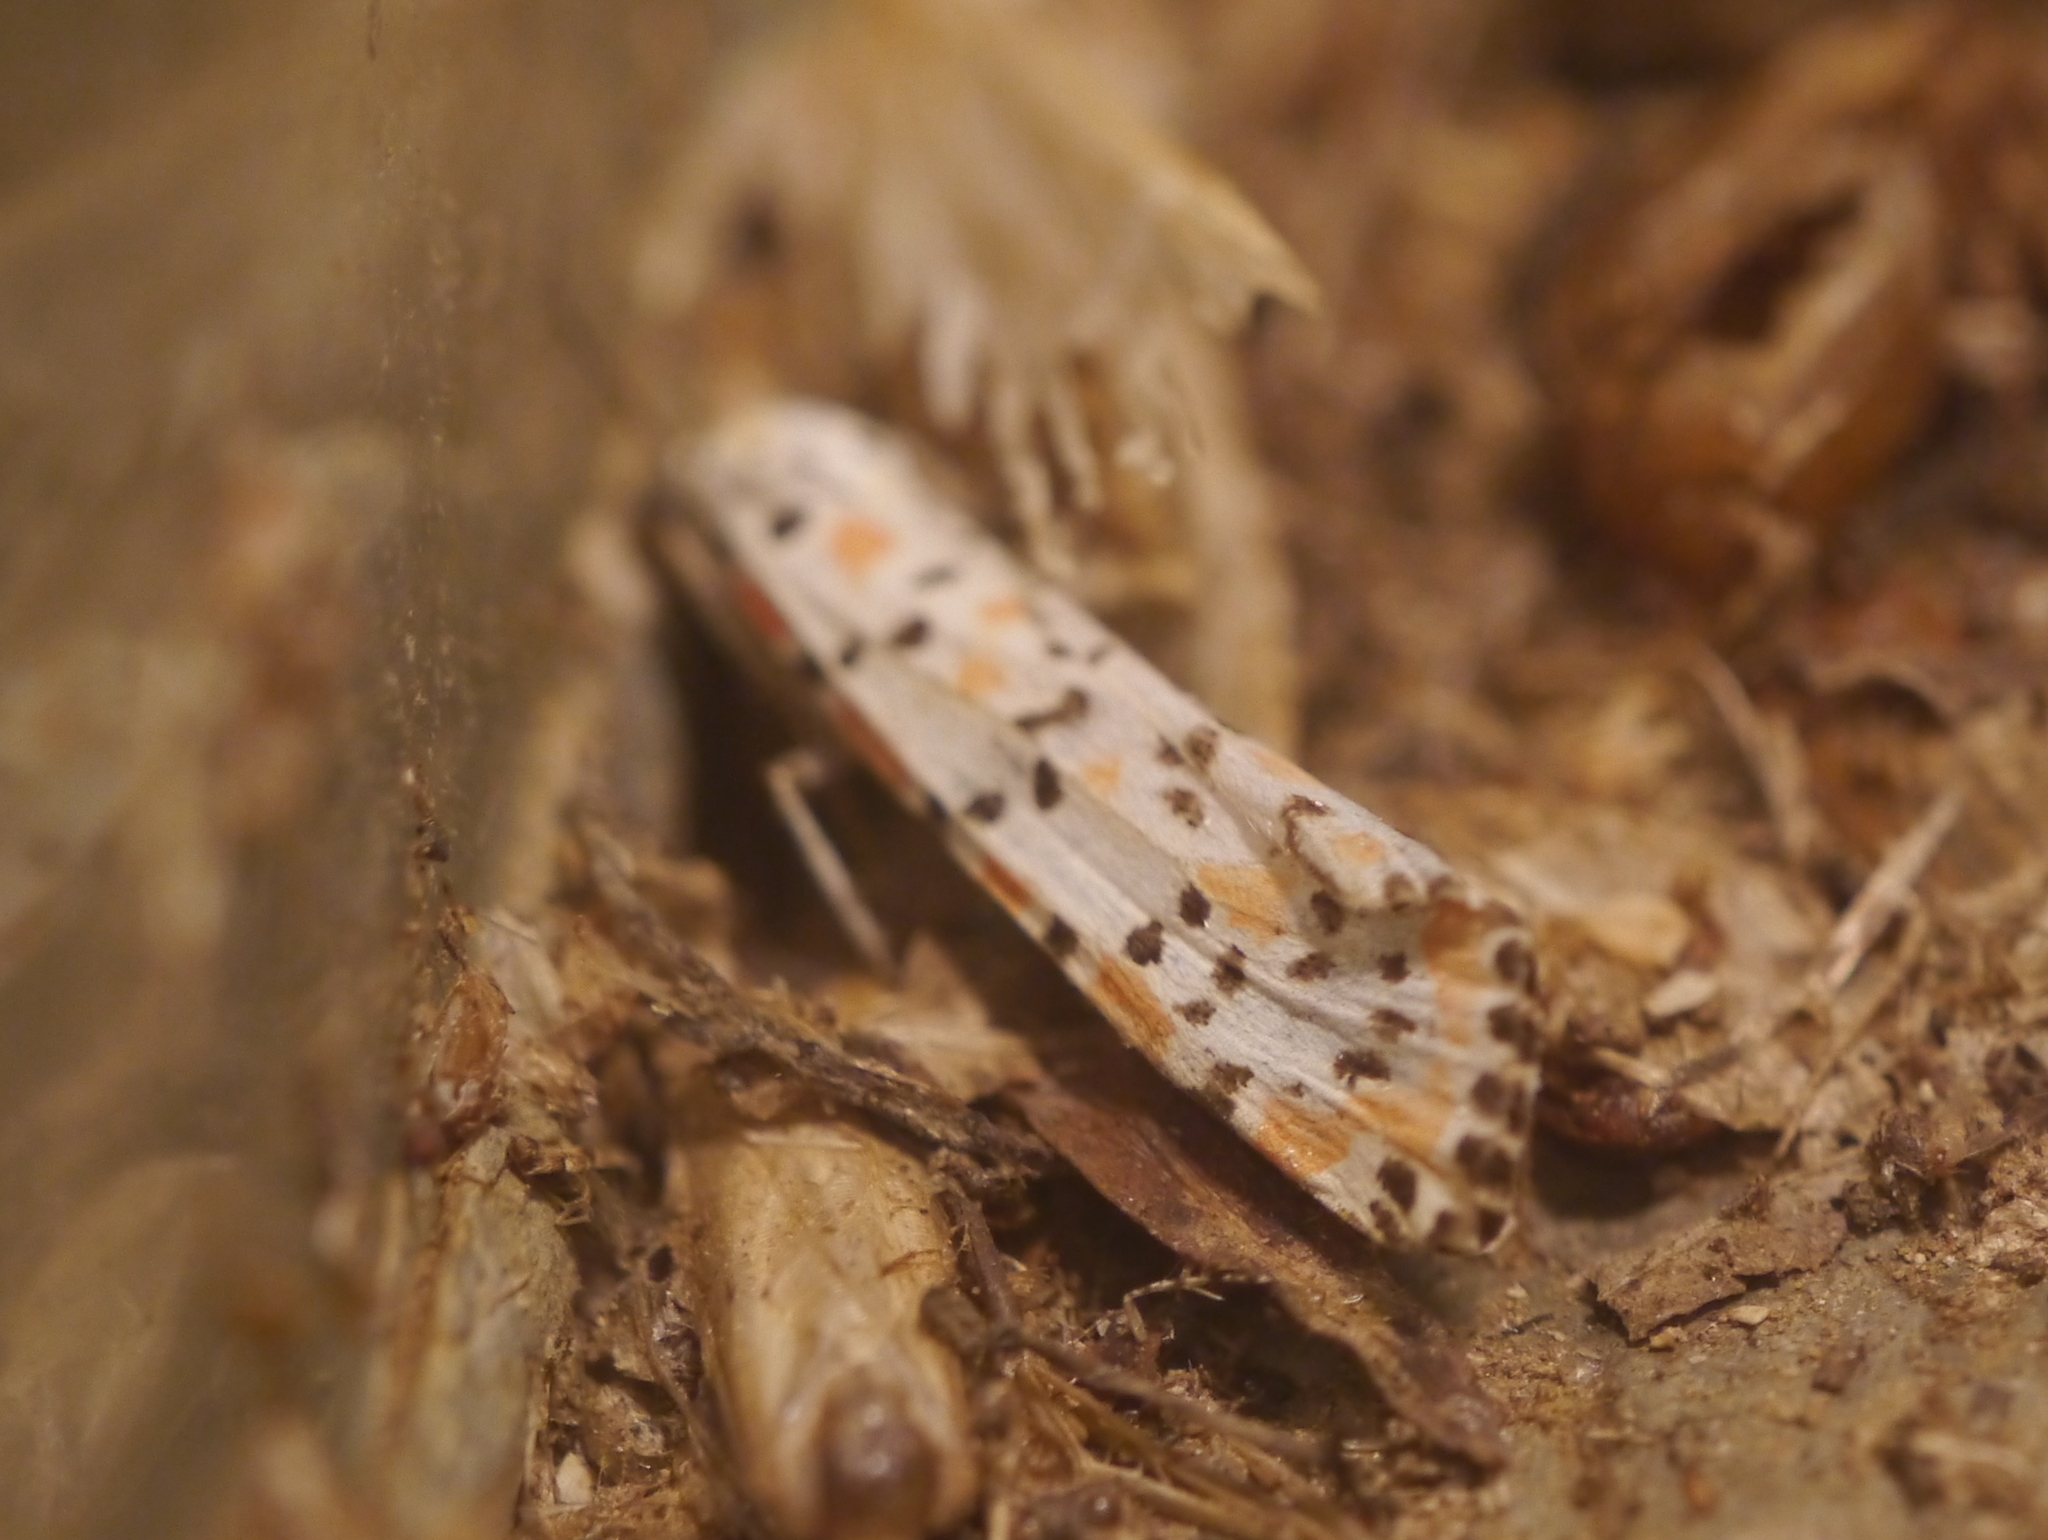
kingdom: Animalia
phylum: Arthropoda
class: Insecta
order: Lepidoptera
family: Erebidae
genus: Utetheisa
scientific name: Utetheisa pulchella
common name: Crimson speckled
